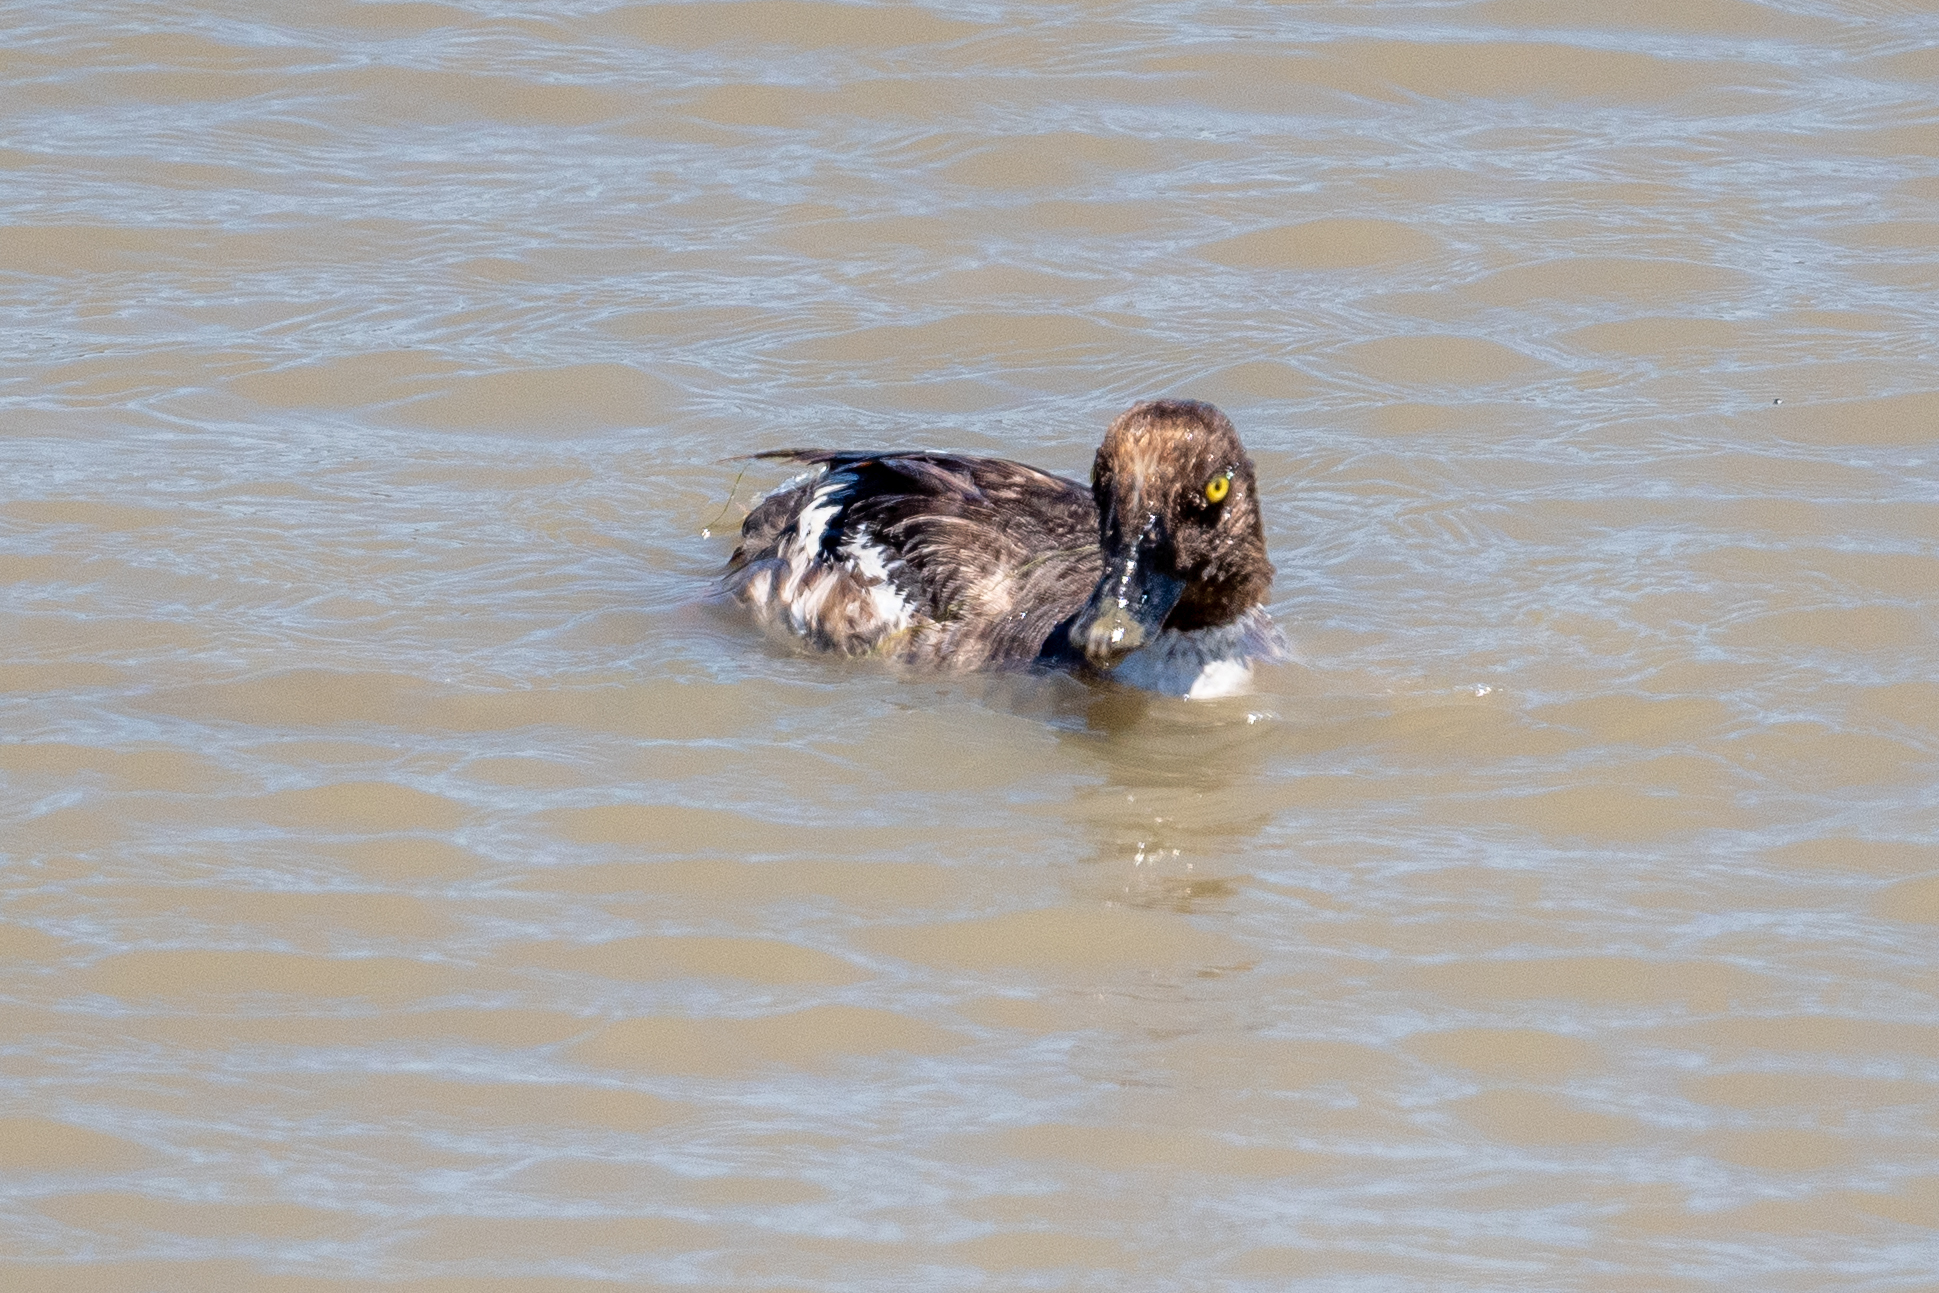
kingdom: Animalia
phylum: Chordata
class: Aves
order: Anseriformes
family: Anatidae
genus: Bucephala
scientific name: Bucephala clangula
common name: Common goldeneye
